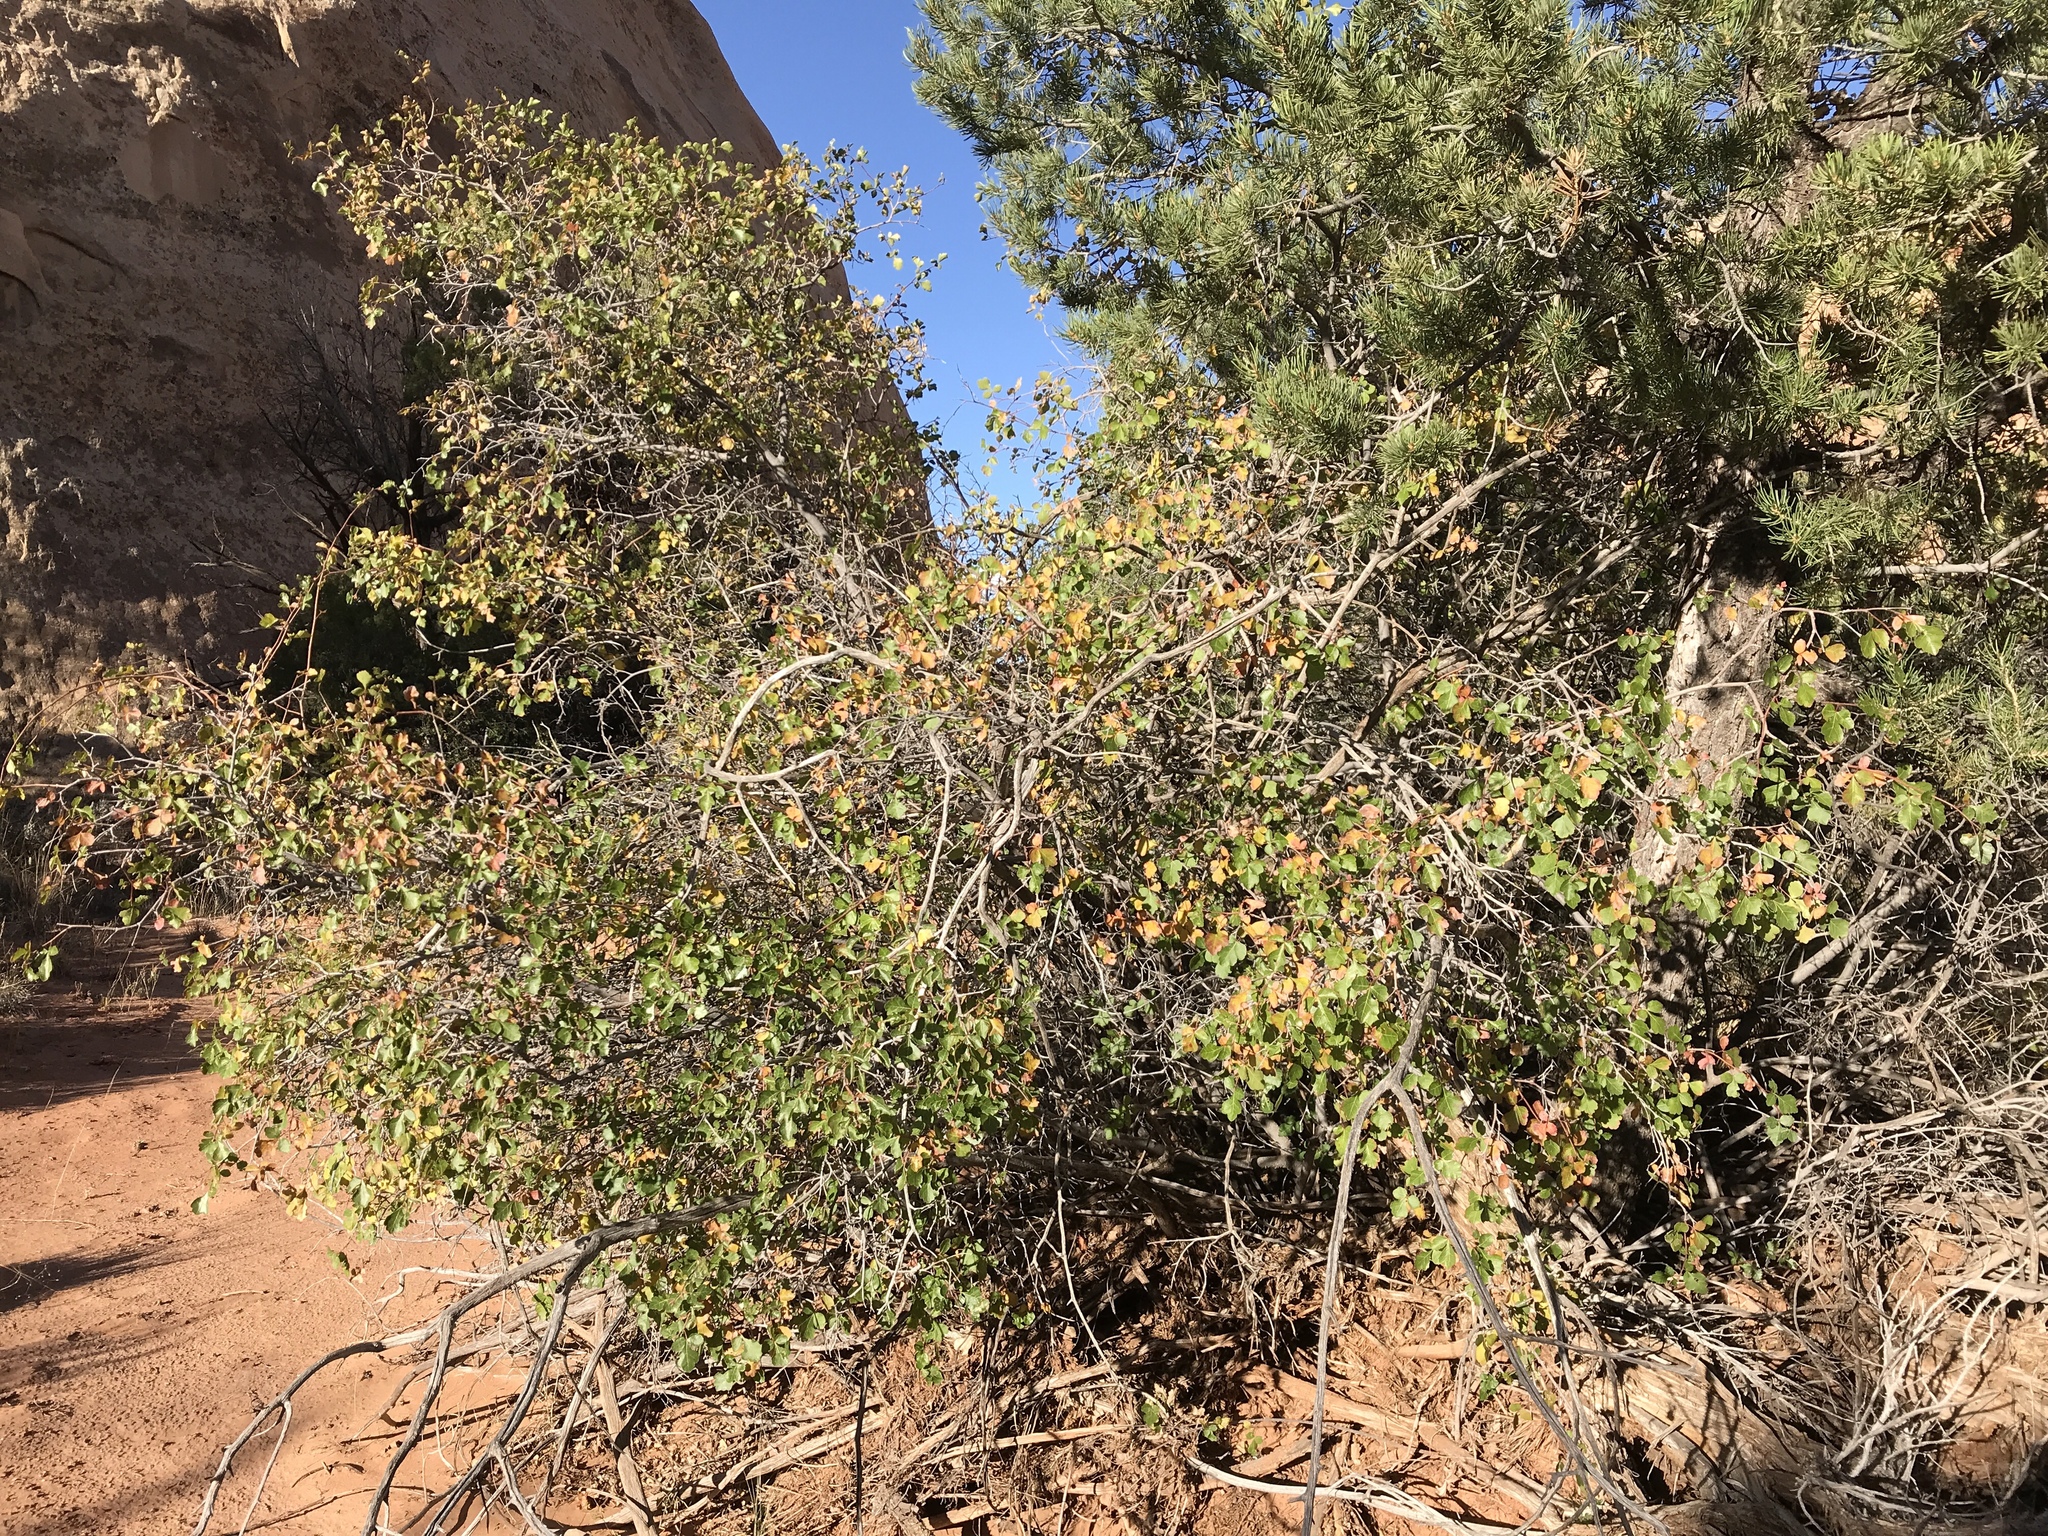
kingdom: Plantae
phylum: Tracheophyta
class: Magnoliopsida
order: Sapindales
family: Anacardiaceae
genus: Rhus
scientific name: Rhus aromatica
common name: Aromatic sumac
